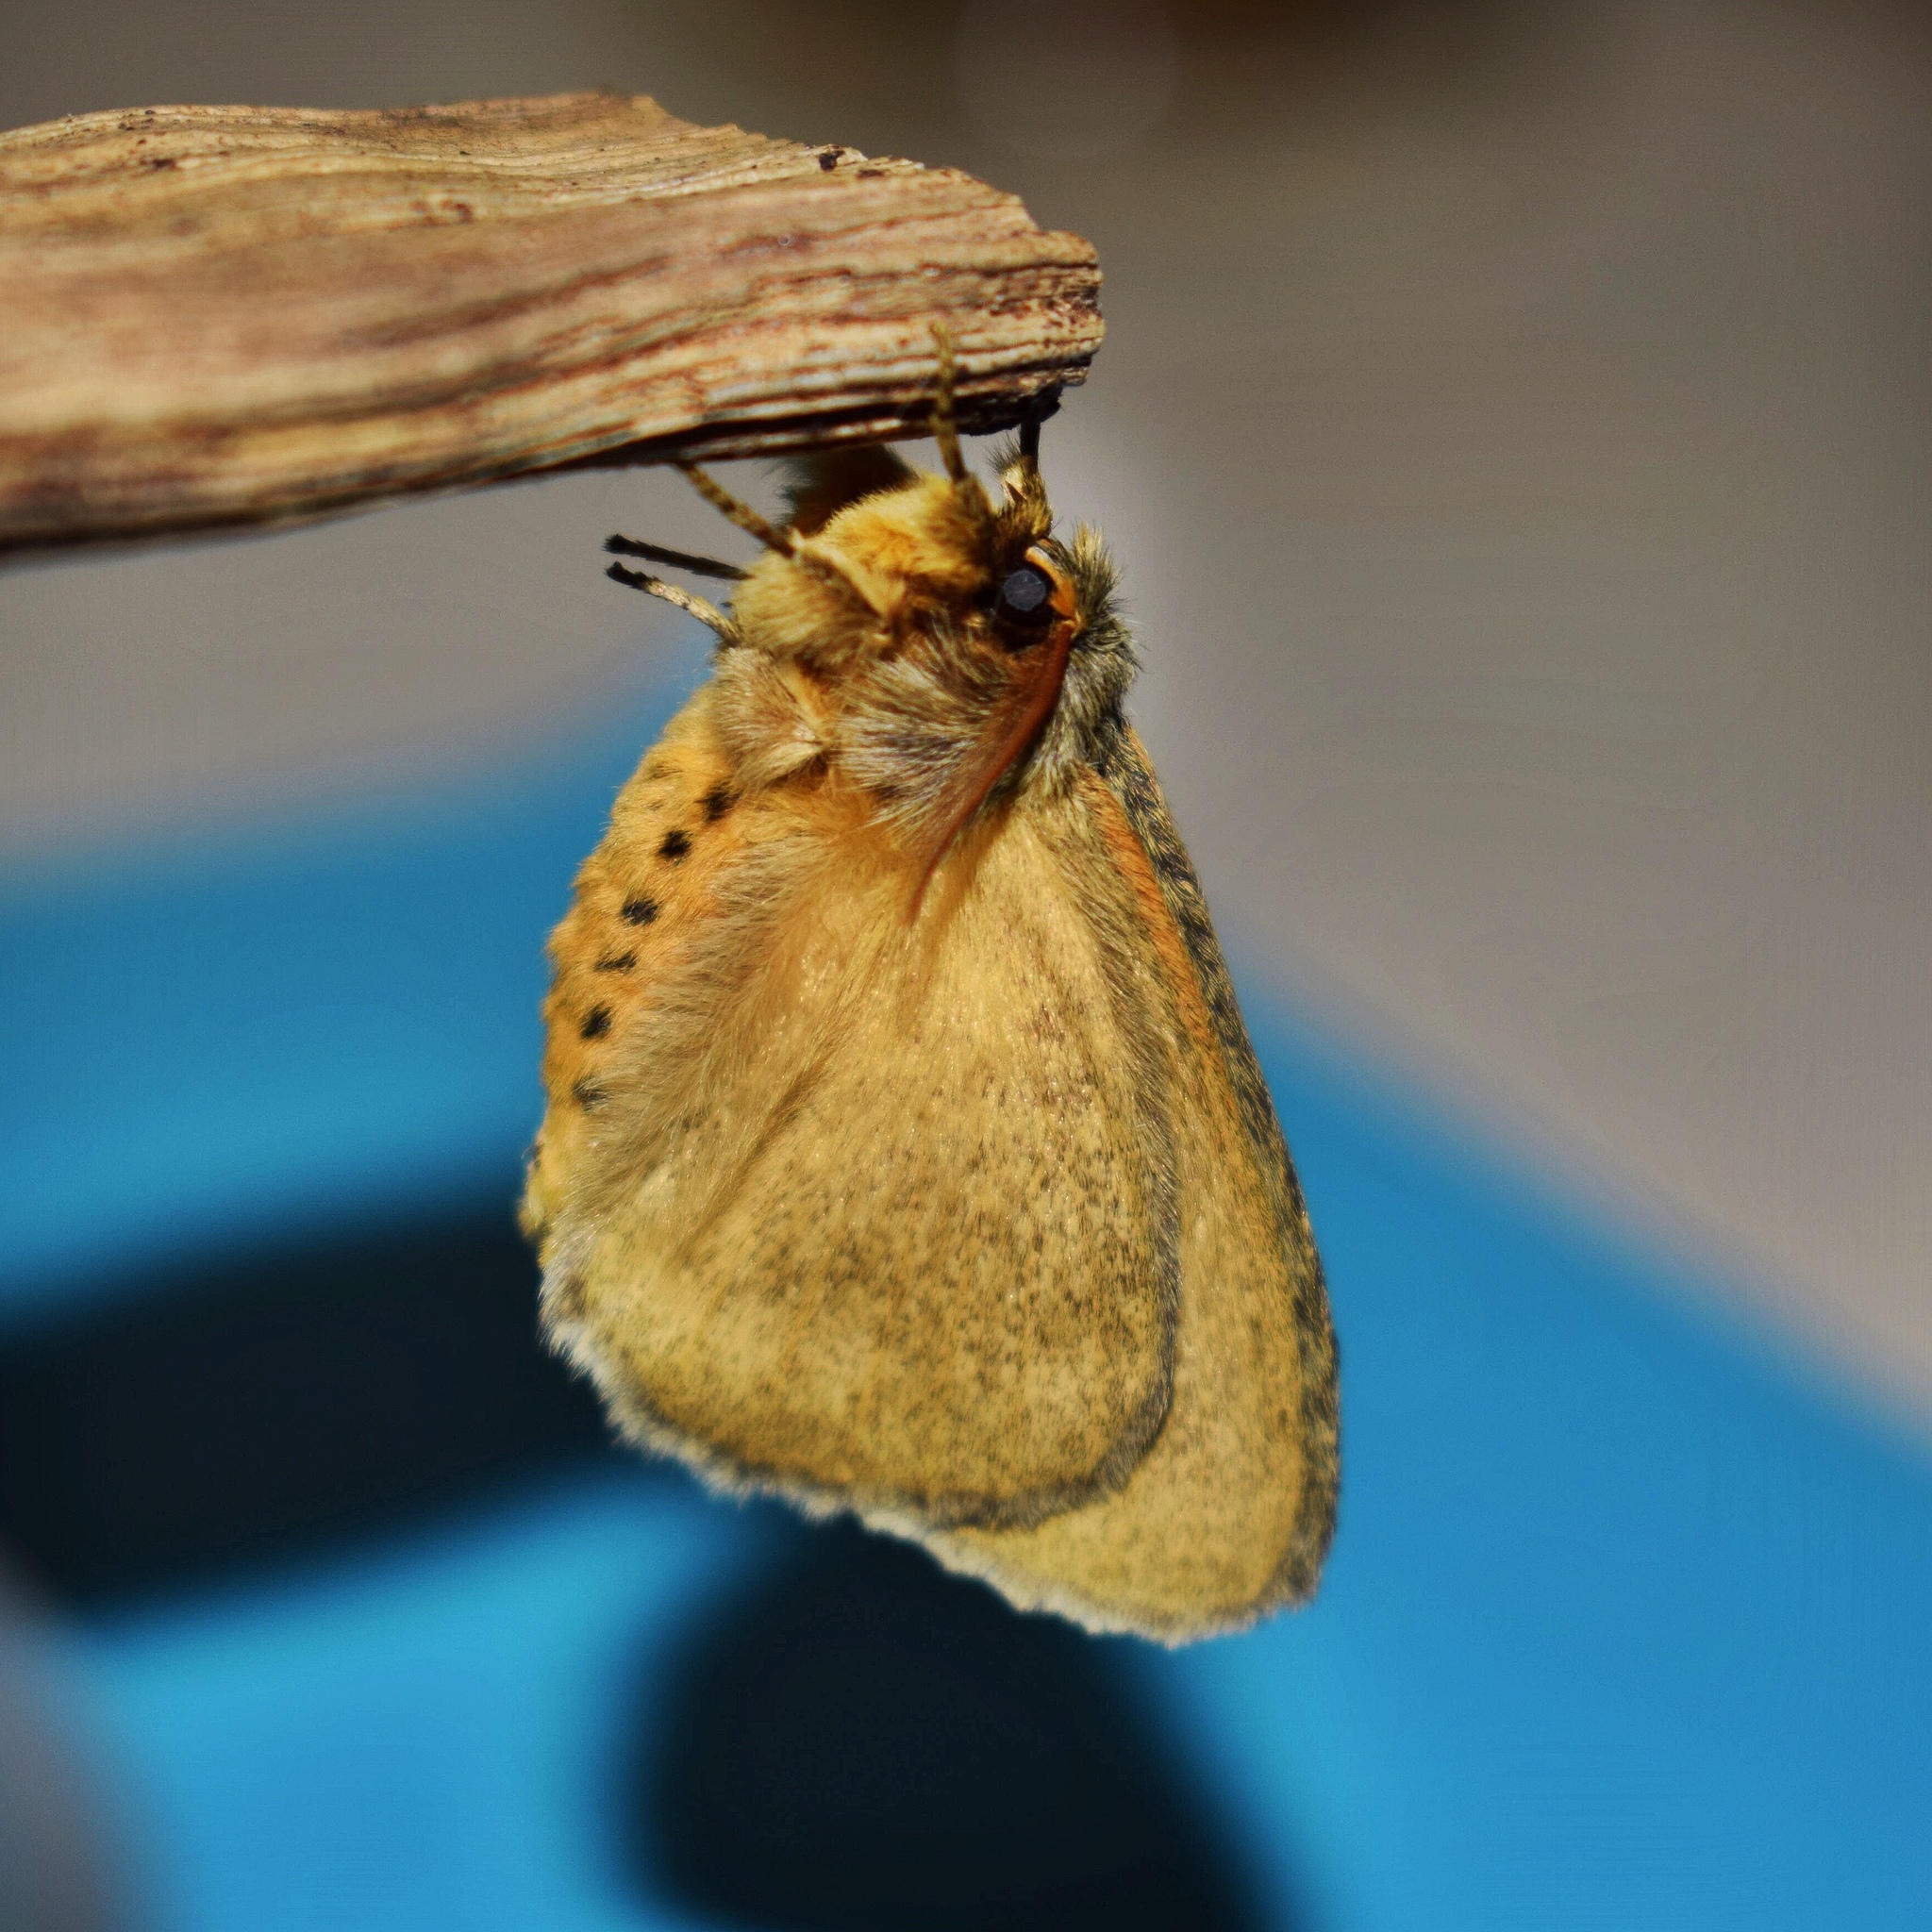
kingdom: Animalia
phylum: Arthropoda
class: Insecta
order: Lepidoptera
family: Eupterotidae
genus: Lichenopteryx
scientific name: Lichenopteryx despecta
